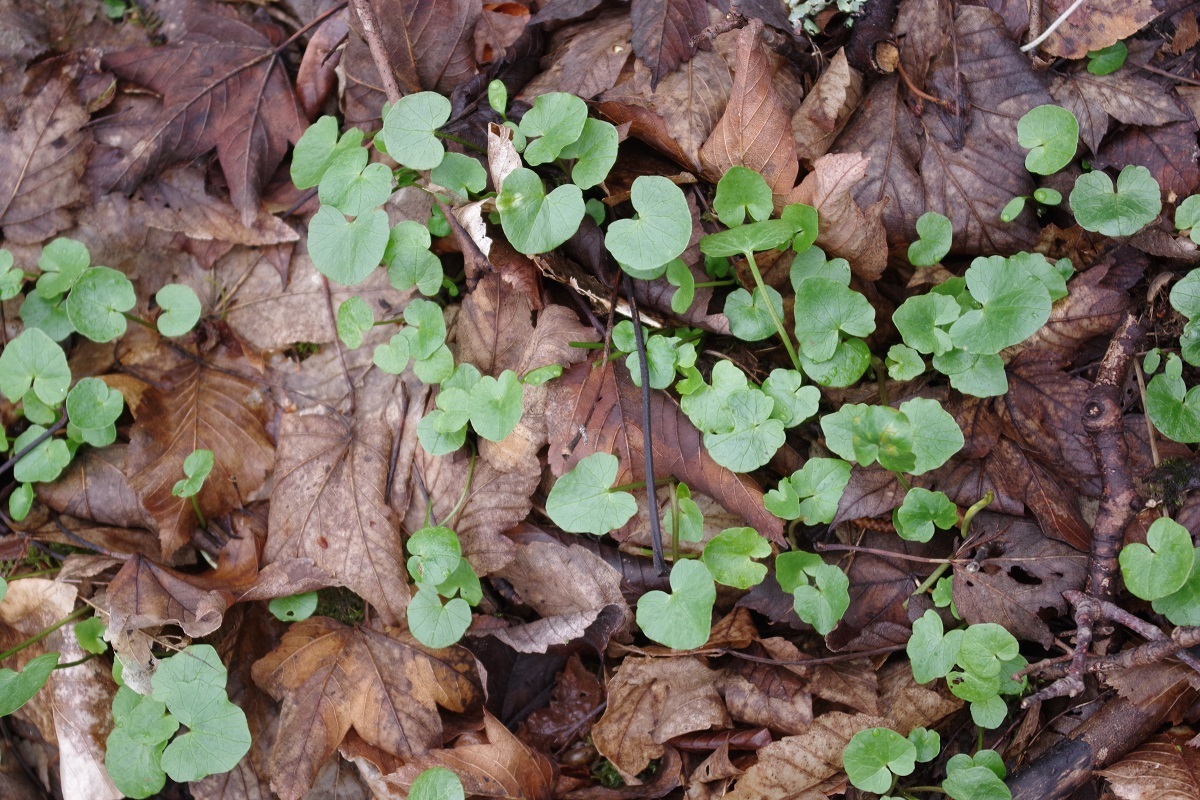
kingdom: Plantae
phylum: Tracheophyta
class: Magnoliopsida
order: Ranunculales
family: Ranunculaceae
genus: Ficaria
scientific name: Ficaria verna
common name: Lesser celandine
